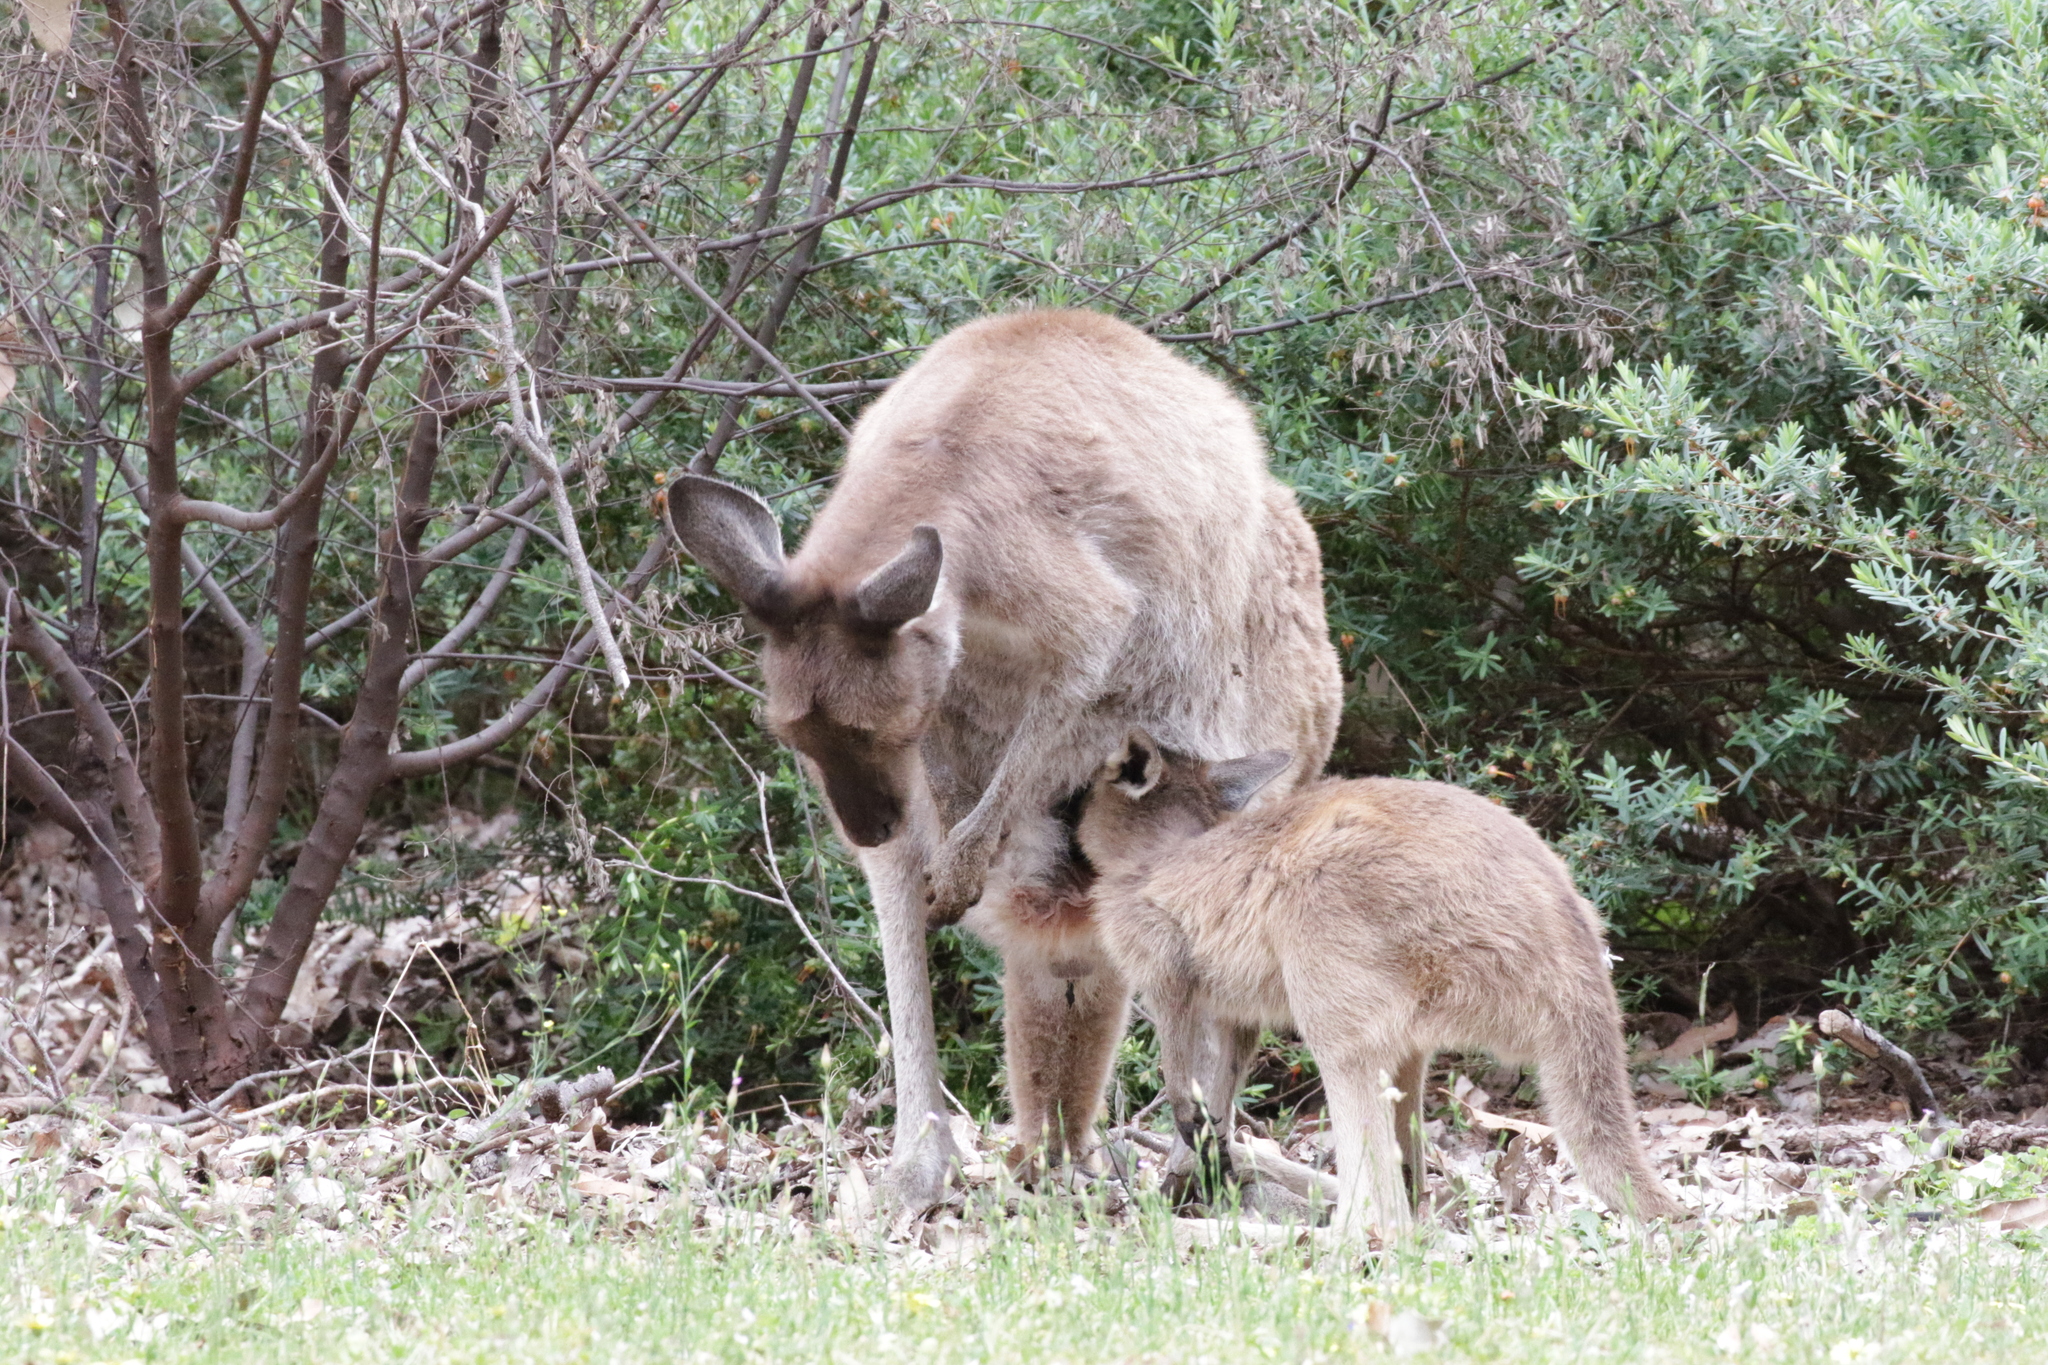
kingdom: Animalia
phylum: Chordata
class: Mammalia
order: Diprotodontia
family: Macropodidae
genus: Macropus
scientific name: Macropus fuliginosus
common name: Western grey kangaroo
